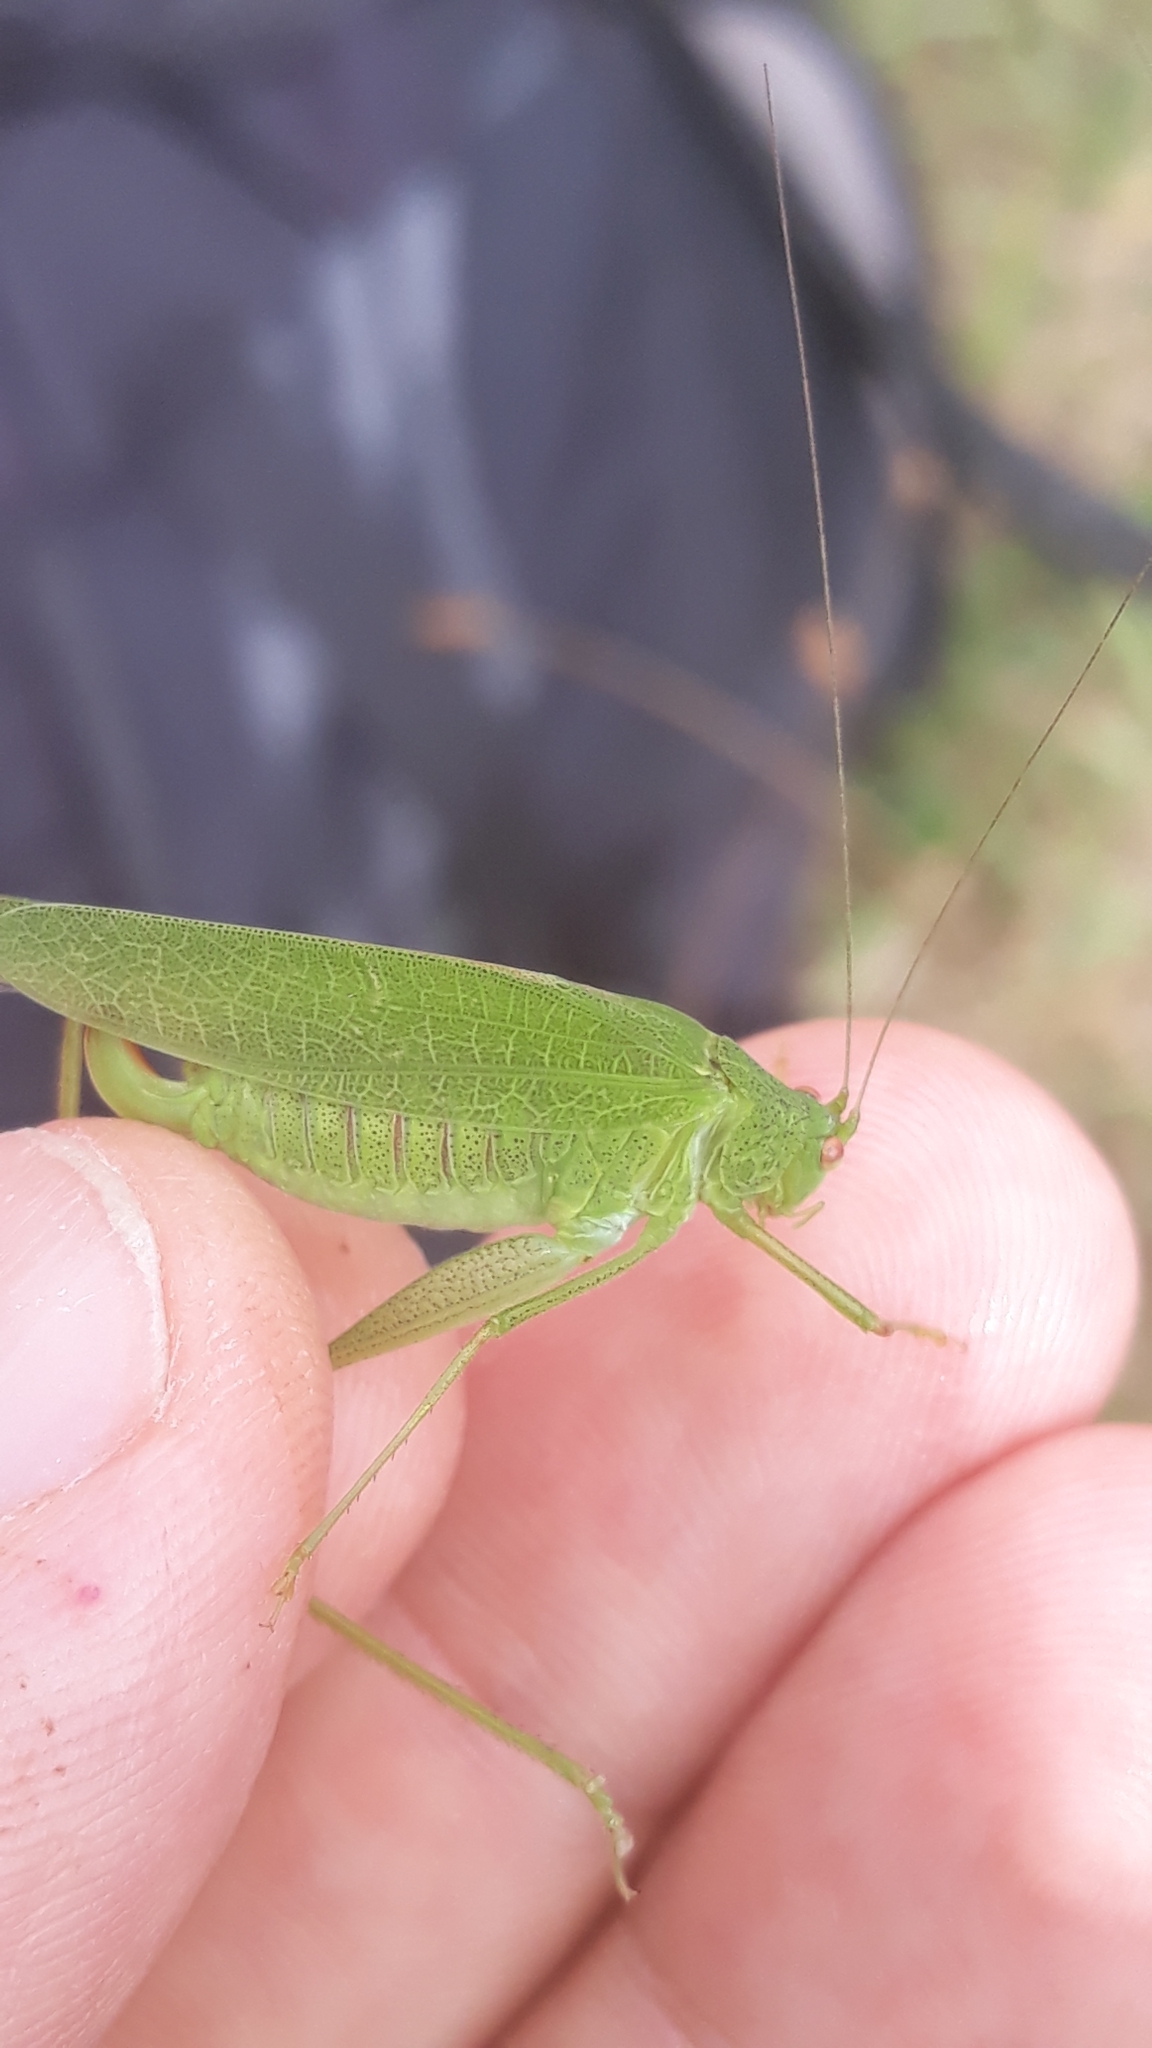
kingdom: Animalia
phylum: Arthropoda
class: Insecta
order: Orthoptera
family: Tettigoniidae
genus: Phaneroptera
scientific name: Phaneroptera nana
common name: Southern sickle bush-cricket
